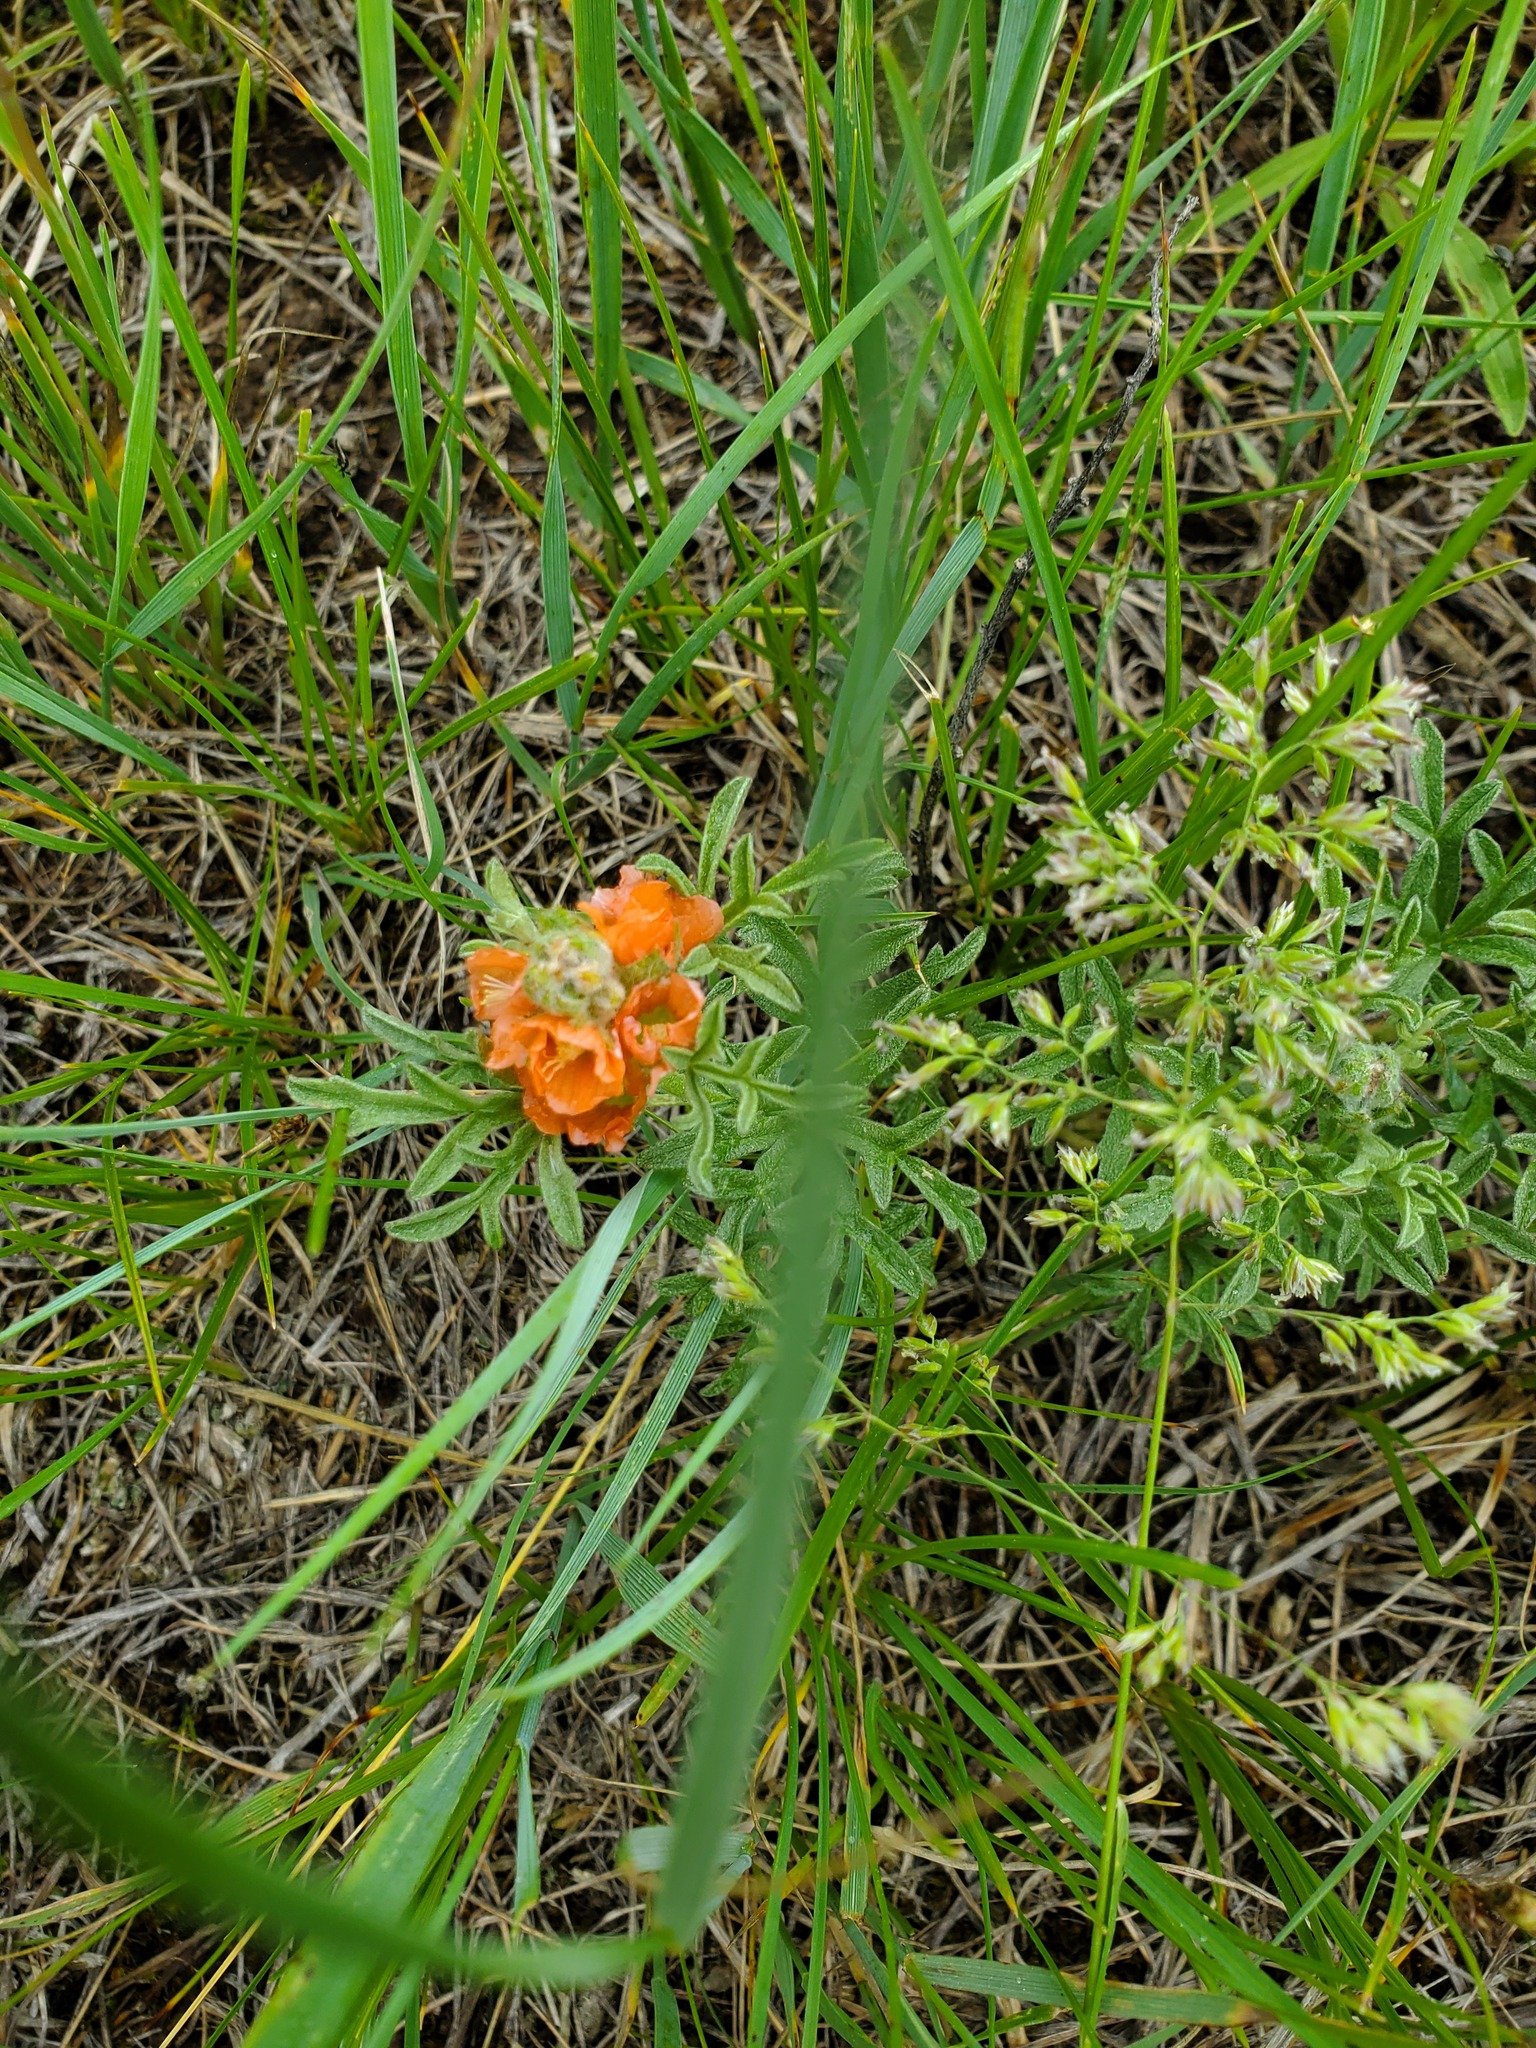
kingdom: Plantae
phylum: Tracheophyta
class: Magnoliopsida
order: Malvales
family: Malvaceae
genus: Sphaeralcea
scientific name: Sphaeralcea coccinea
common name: Moss-rose
